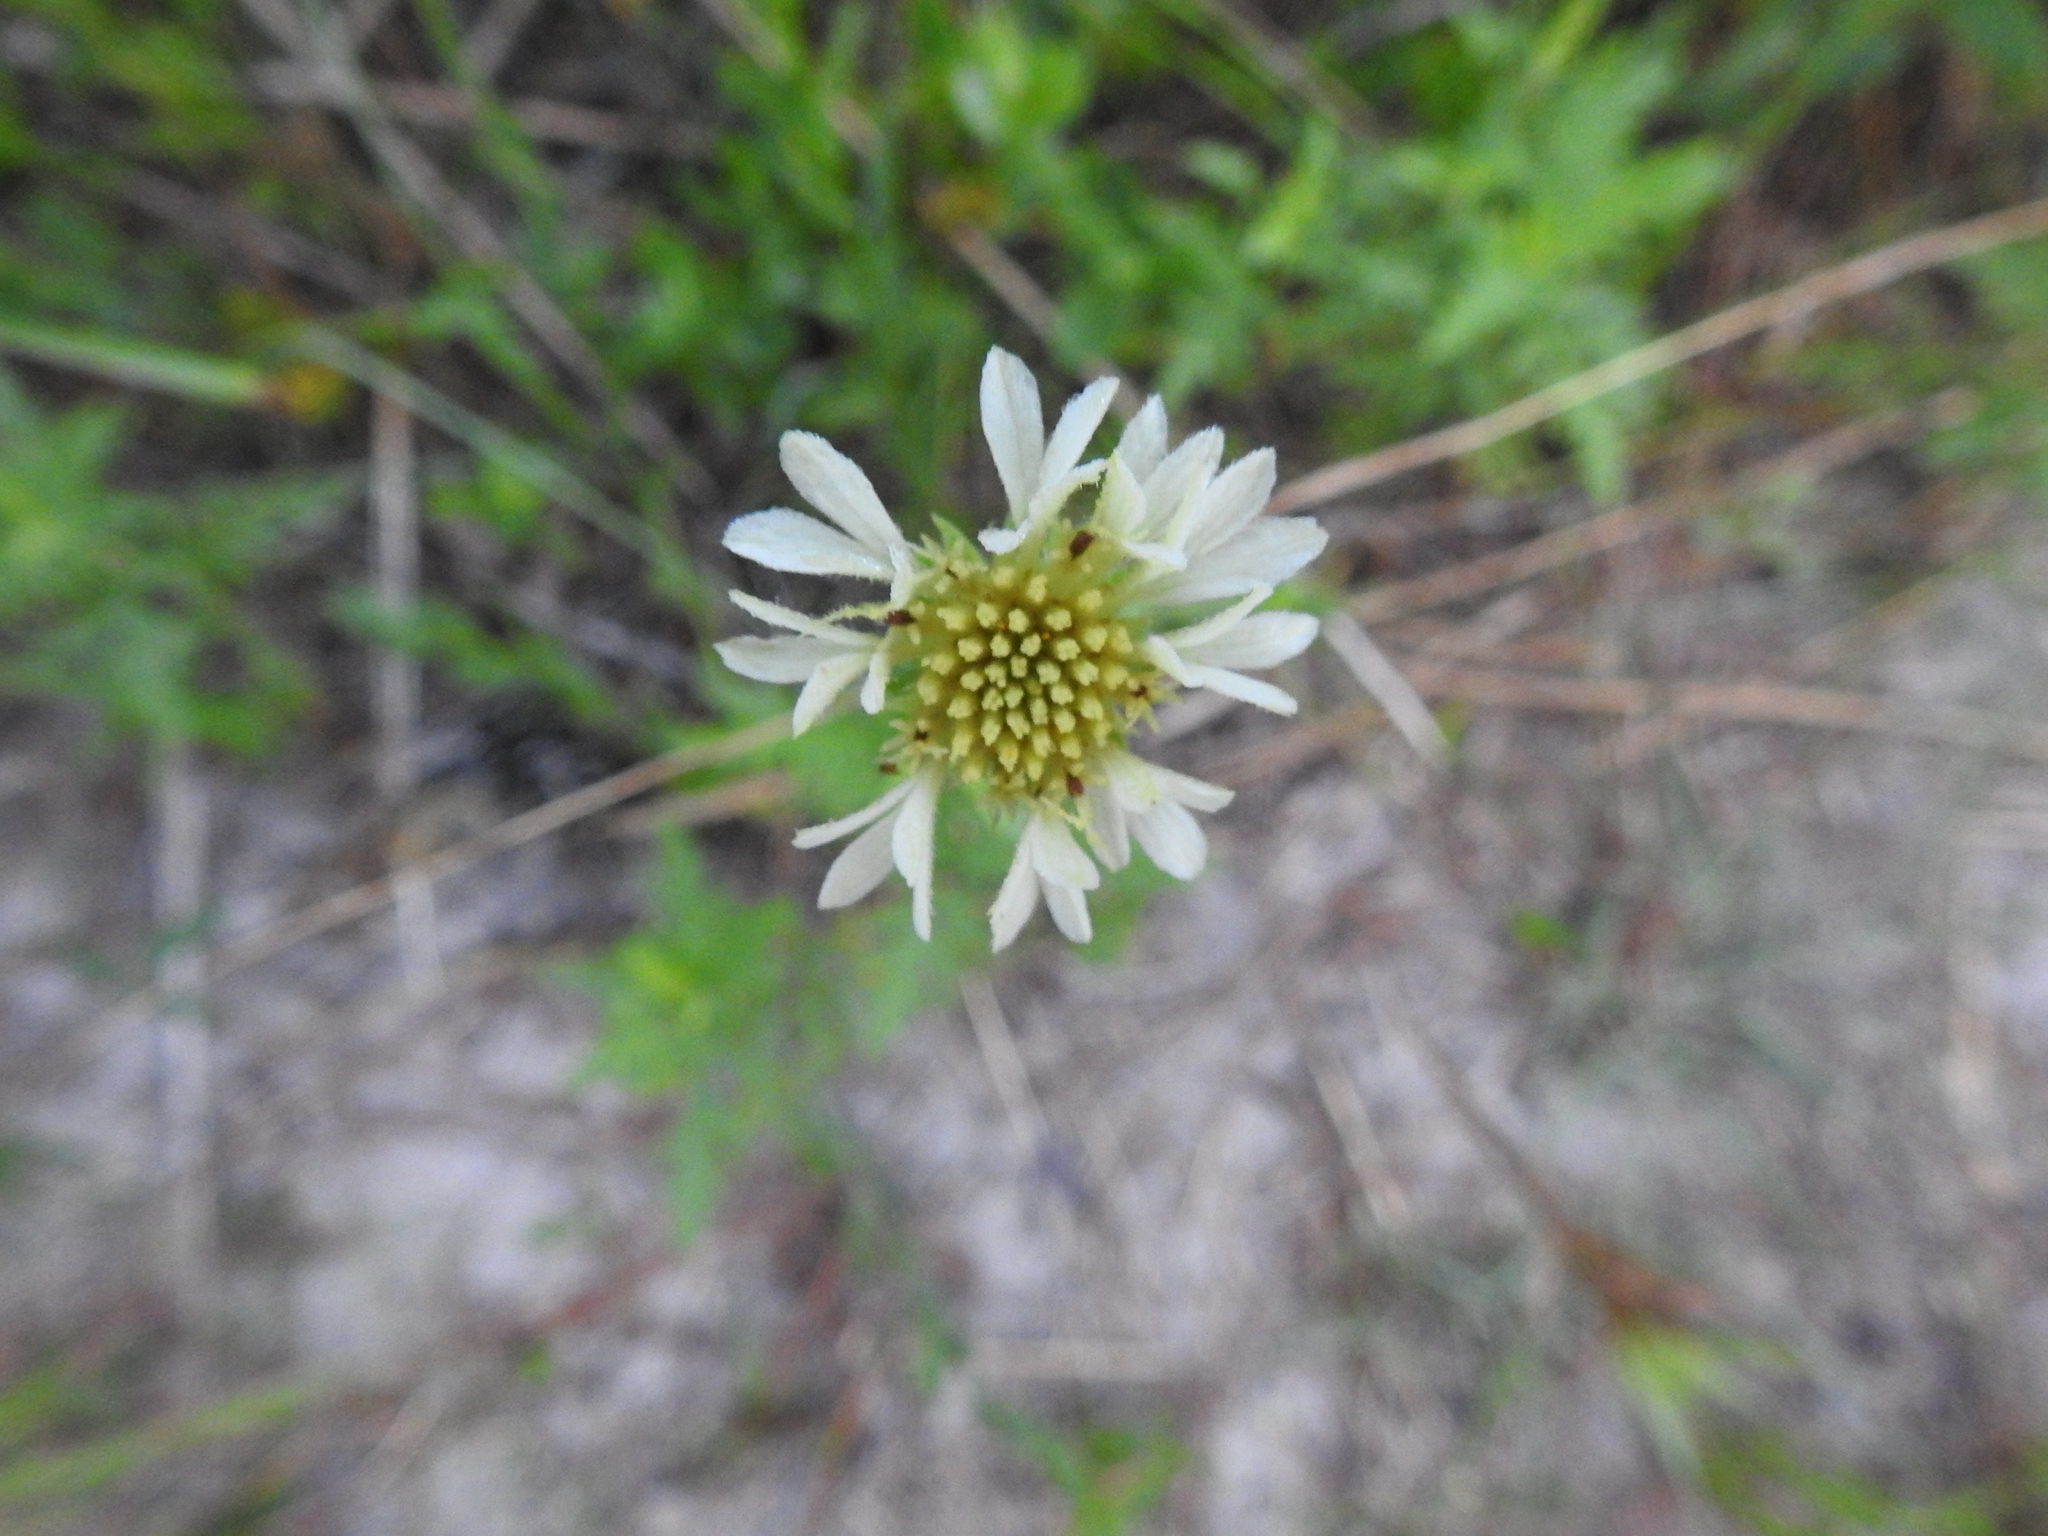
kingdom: Plantae
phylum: Tracheophyta
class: Magnoliopsida
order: Asterales
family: Asteraceae
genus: Gaillardia
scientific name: Gaillardia aestivalis
